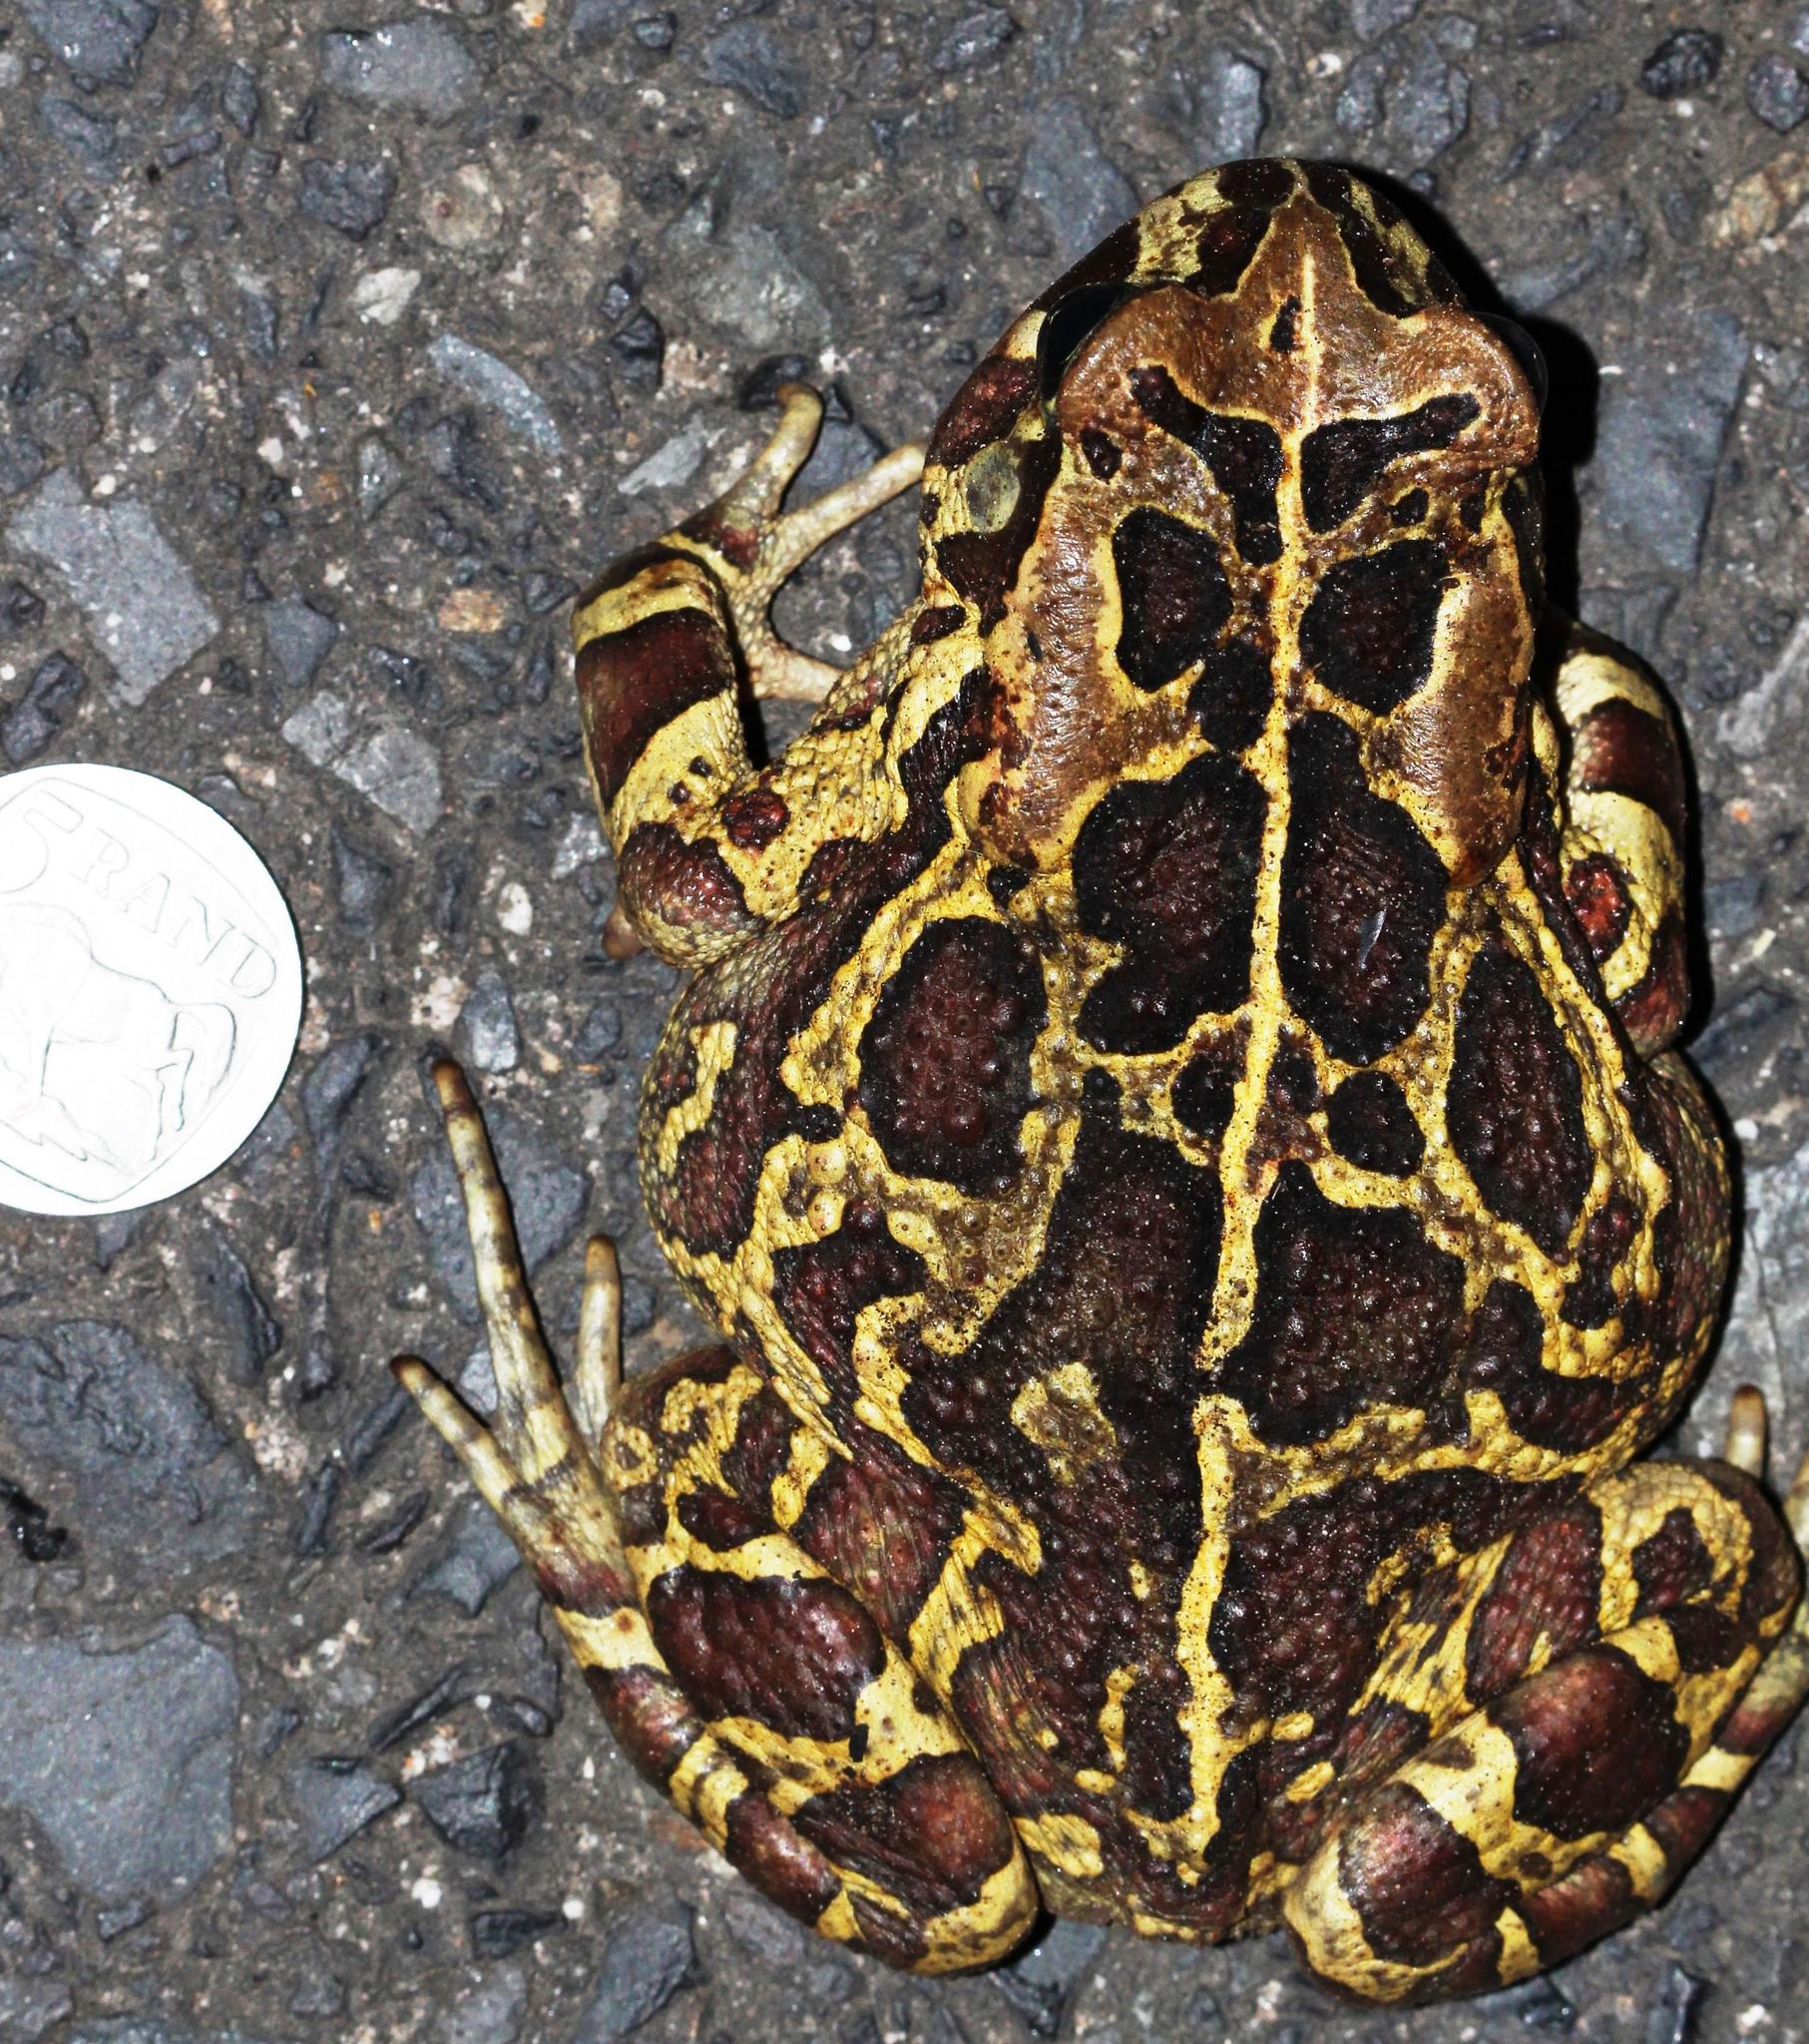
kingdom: Animalia
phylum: Chordata
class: Amphibia
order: Anura
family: Bufonidae
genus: Sclerophrys
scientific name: Sclerophrys pantherina
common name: Panther toad
